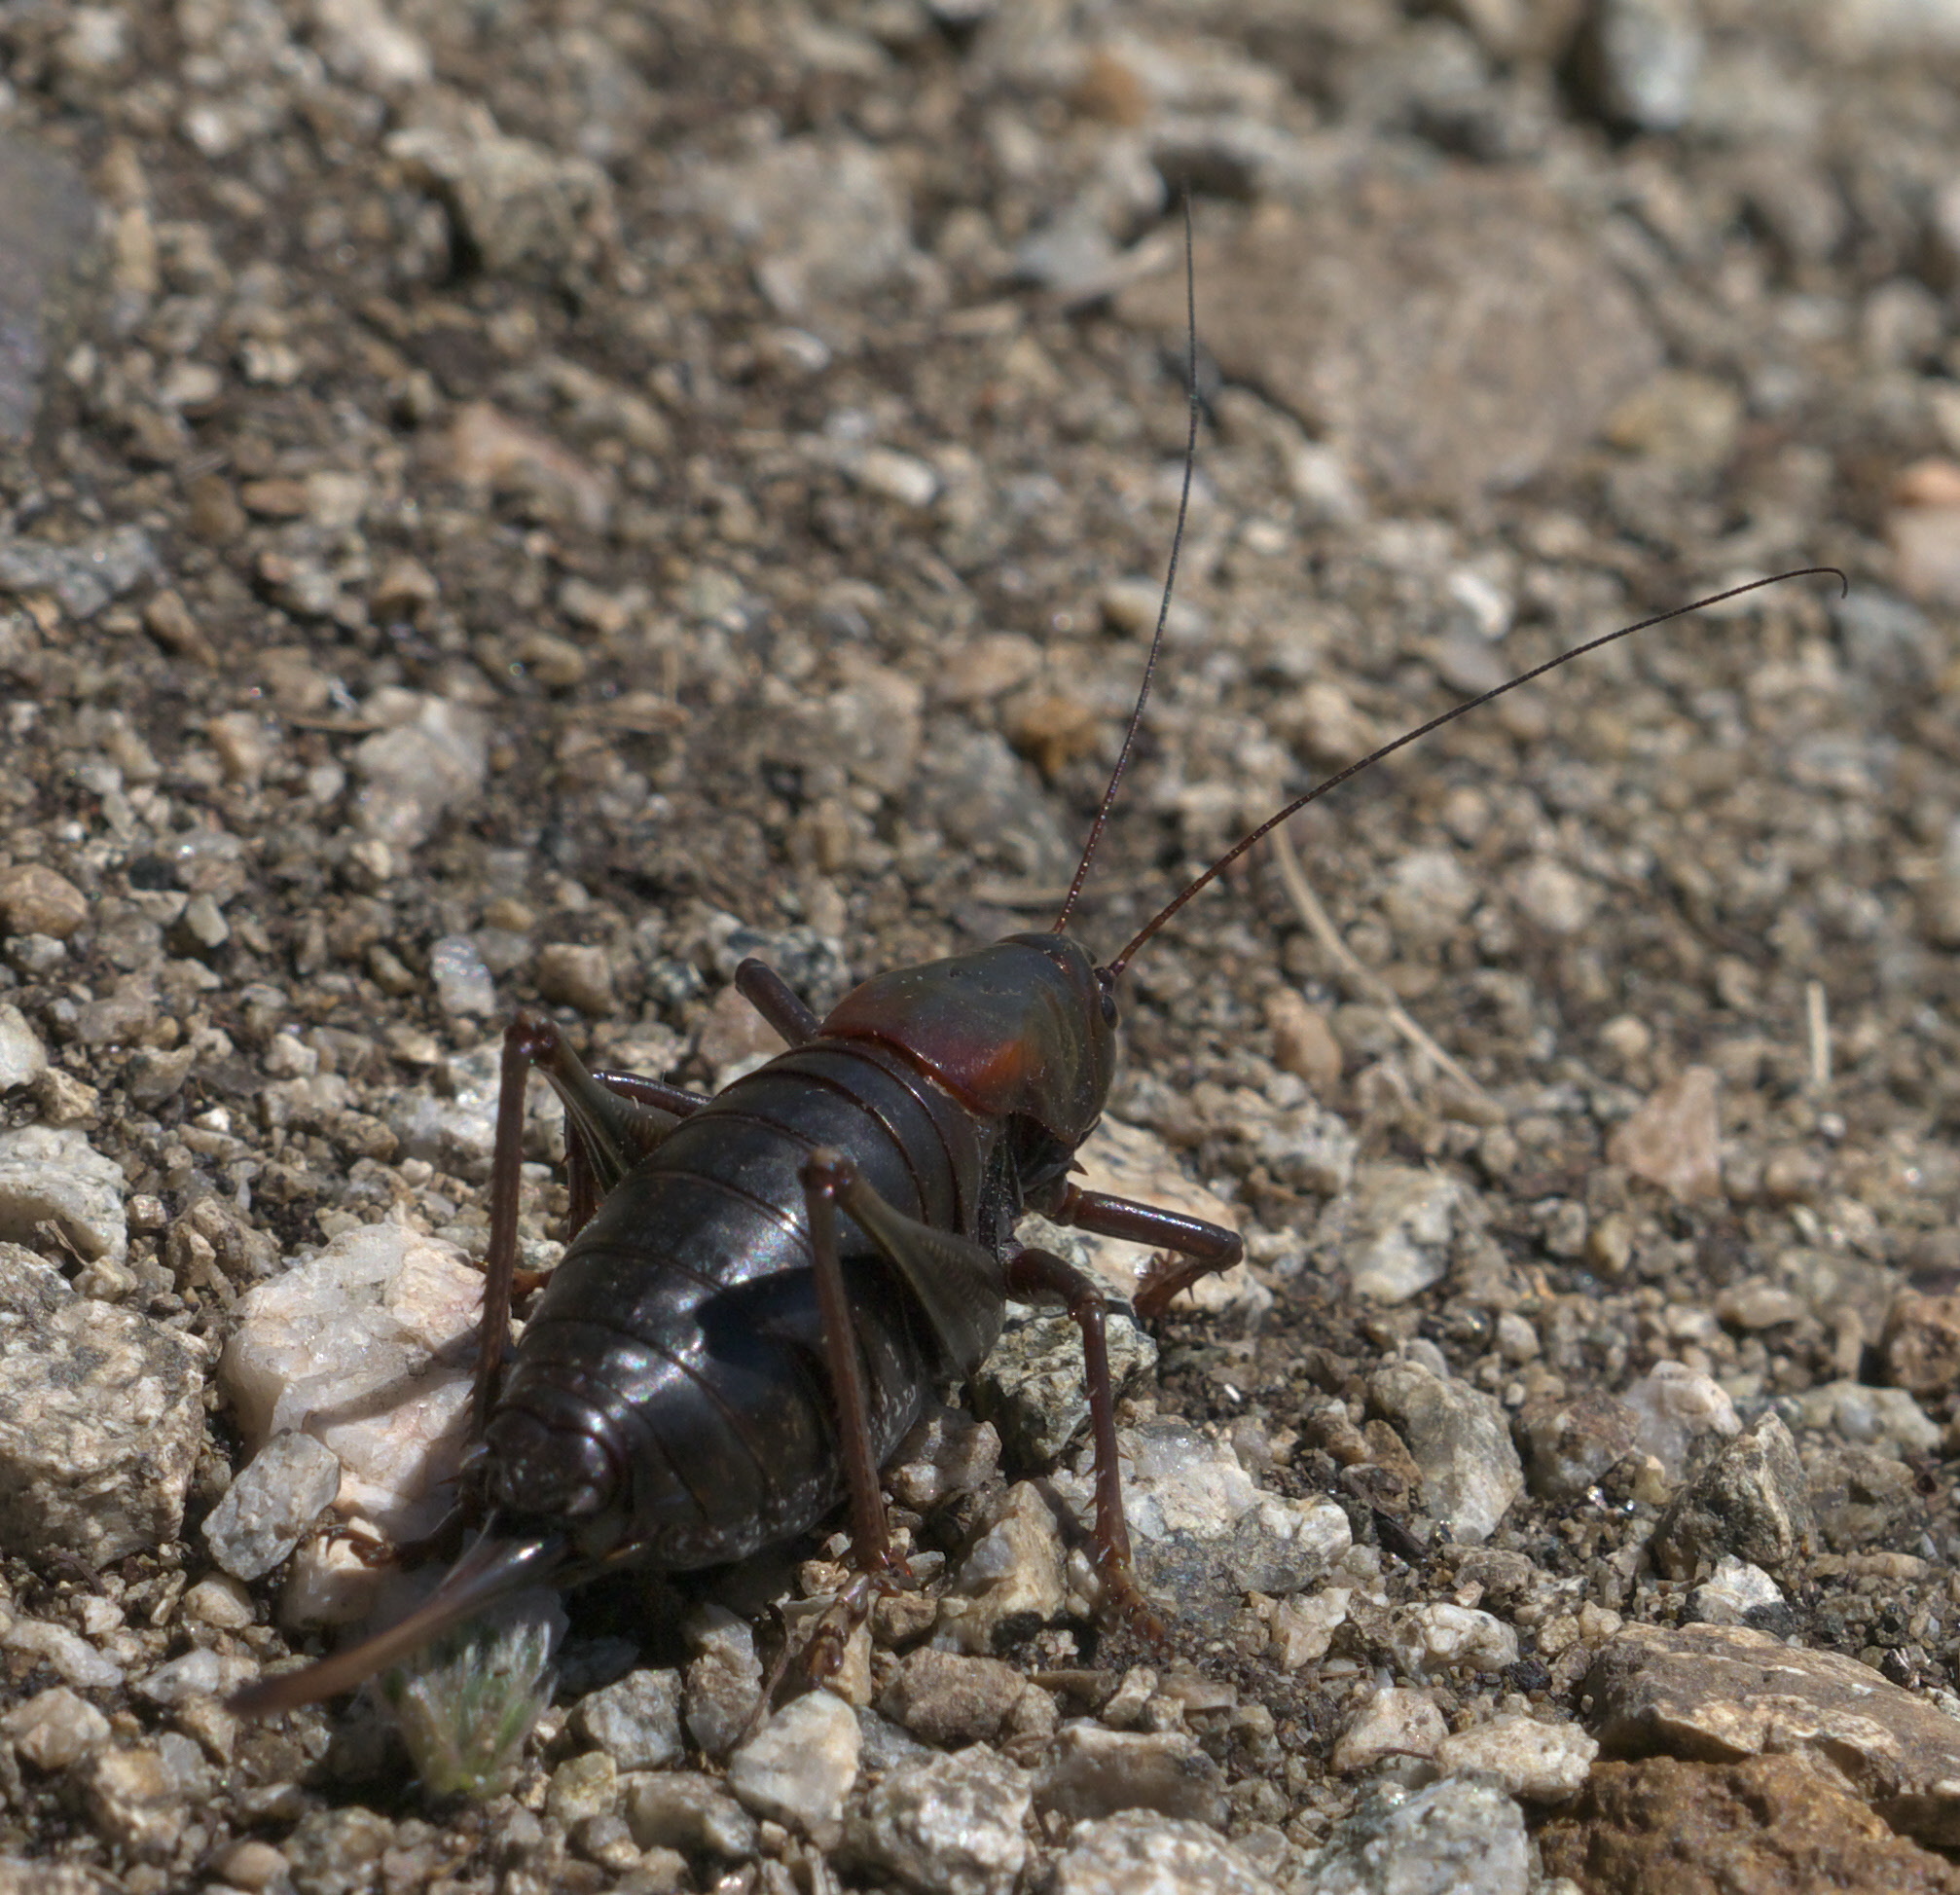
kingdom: Animalia
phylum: Arthropoda
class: Insecta
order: Orthoptera
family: Tettigoniidae
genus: Anabrus
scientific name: Anabrus simplex
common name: Mormon cricket
